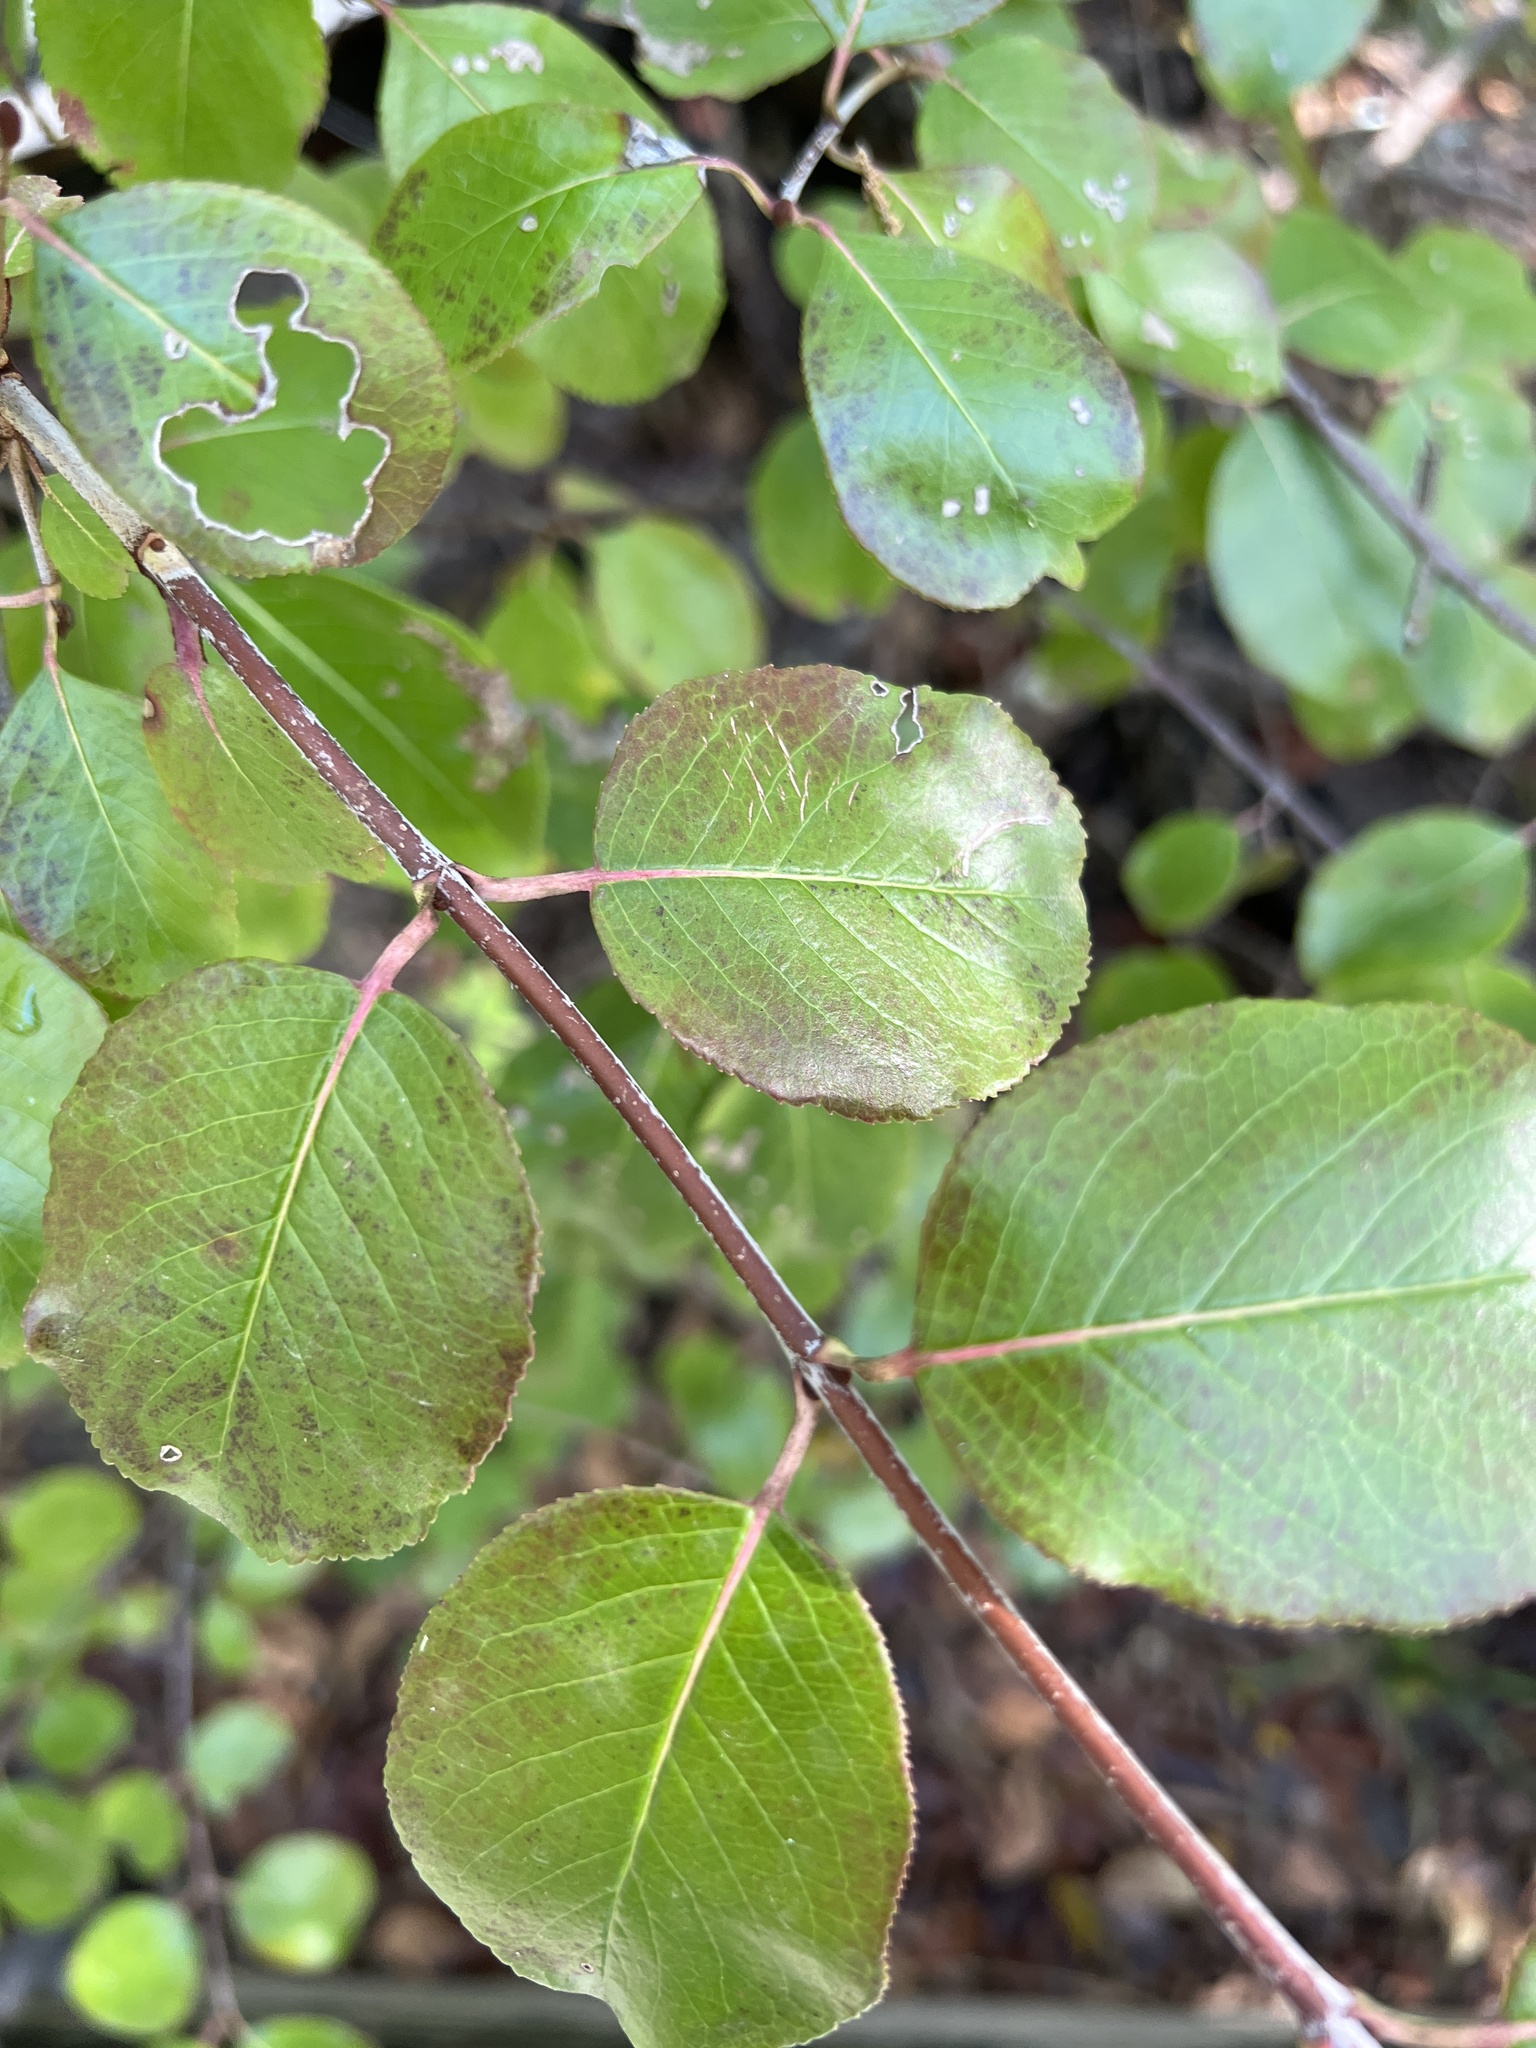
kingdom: Plantae
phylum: Tracheophyta
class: Magnoliopsida
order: Dipsacales
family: Viburnaceae
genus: Viburnum
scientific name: Viburnum rufidulum
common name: Blue haw
